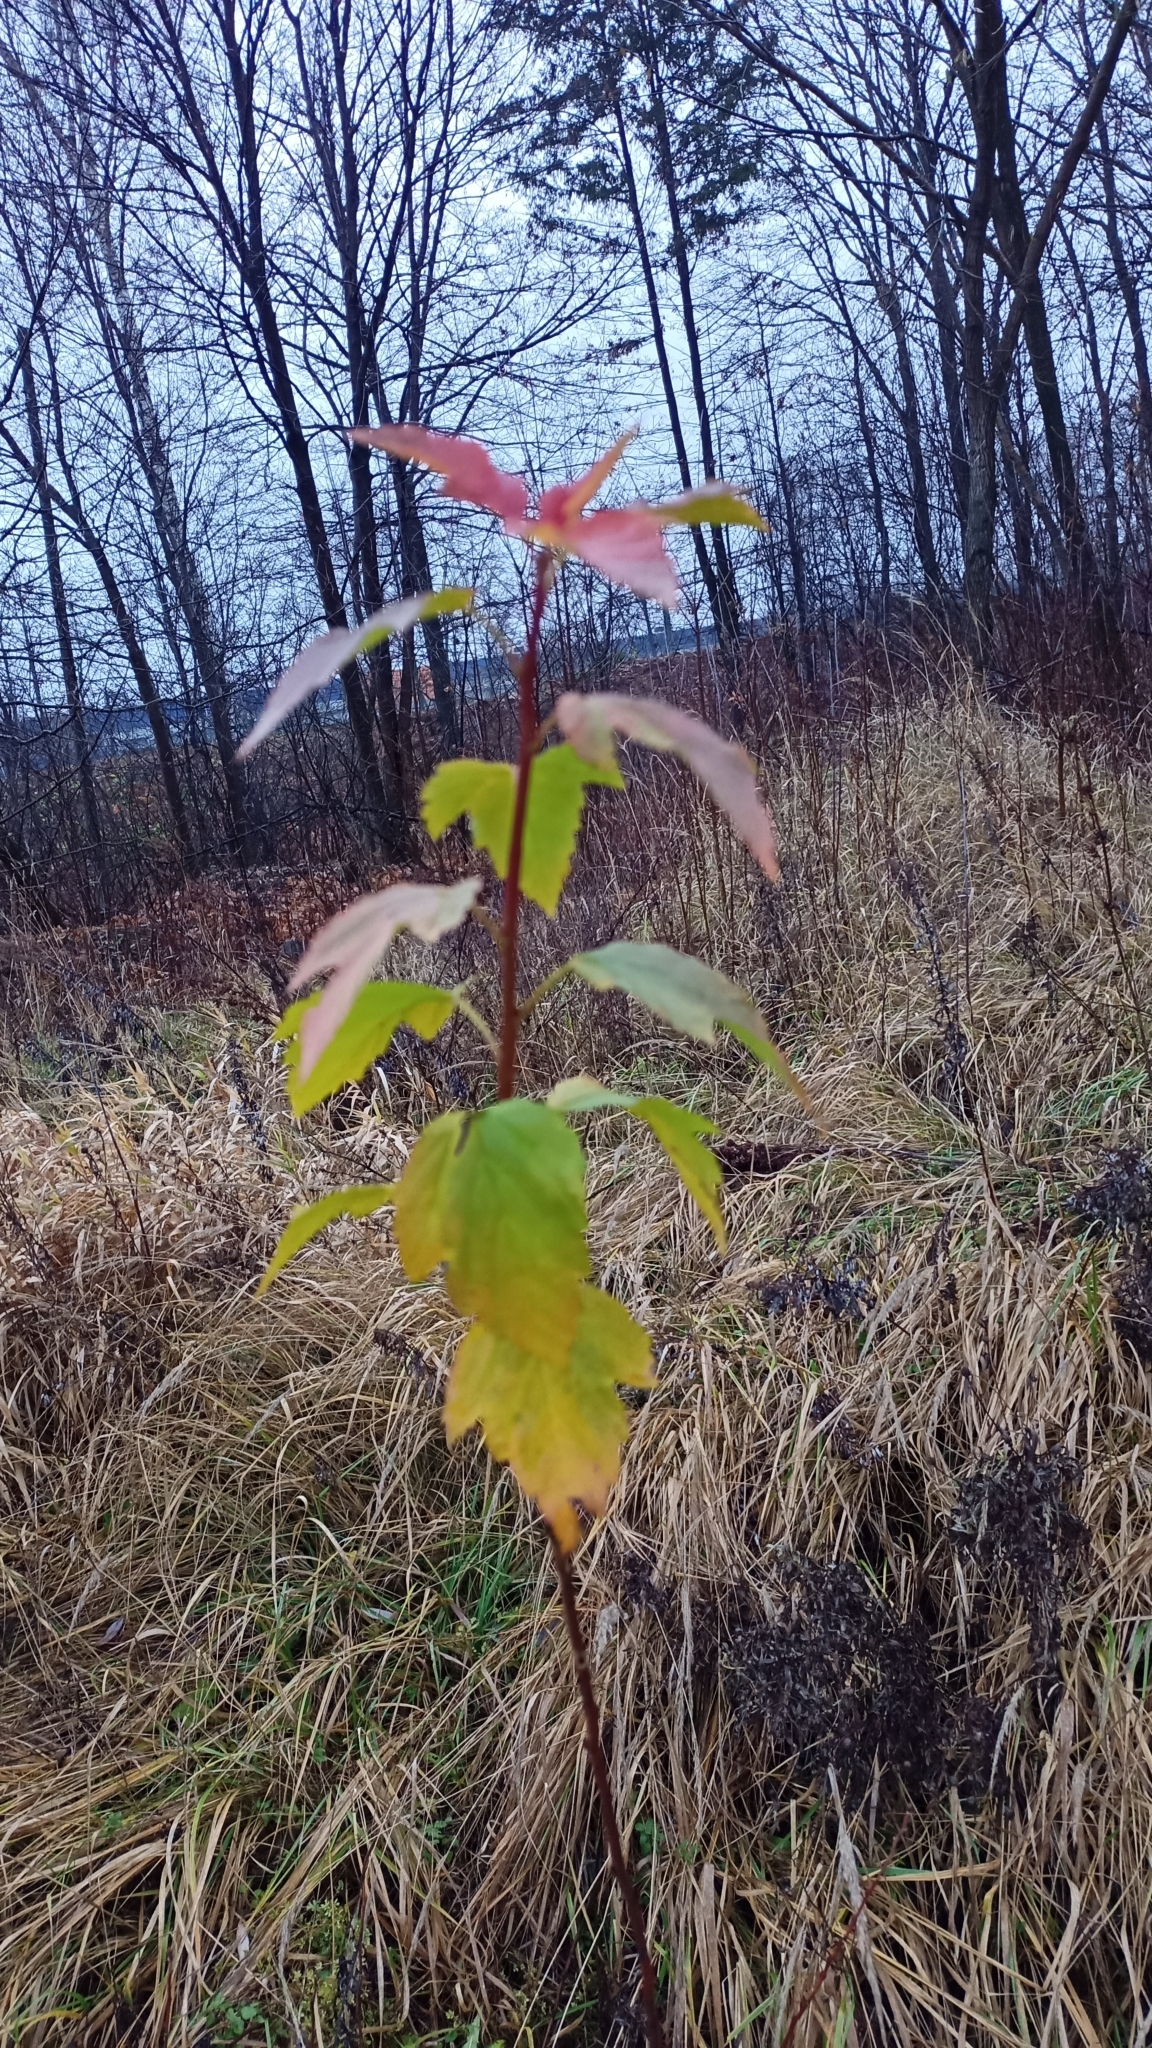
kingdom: Plantae
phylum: Tracheophyta
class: Magnoliopsida
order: Rosales
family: Rosaceae
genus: Physocarpus
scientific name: Physocarpus opulifolius
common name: Ninebark
